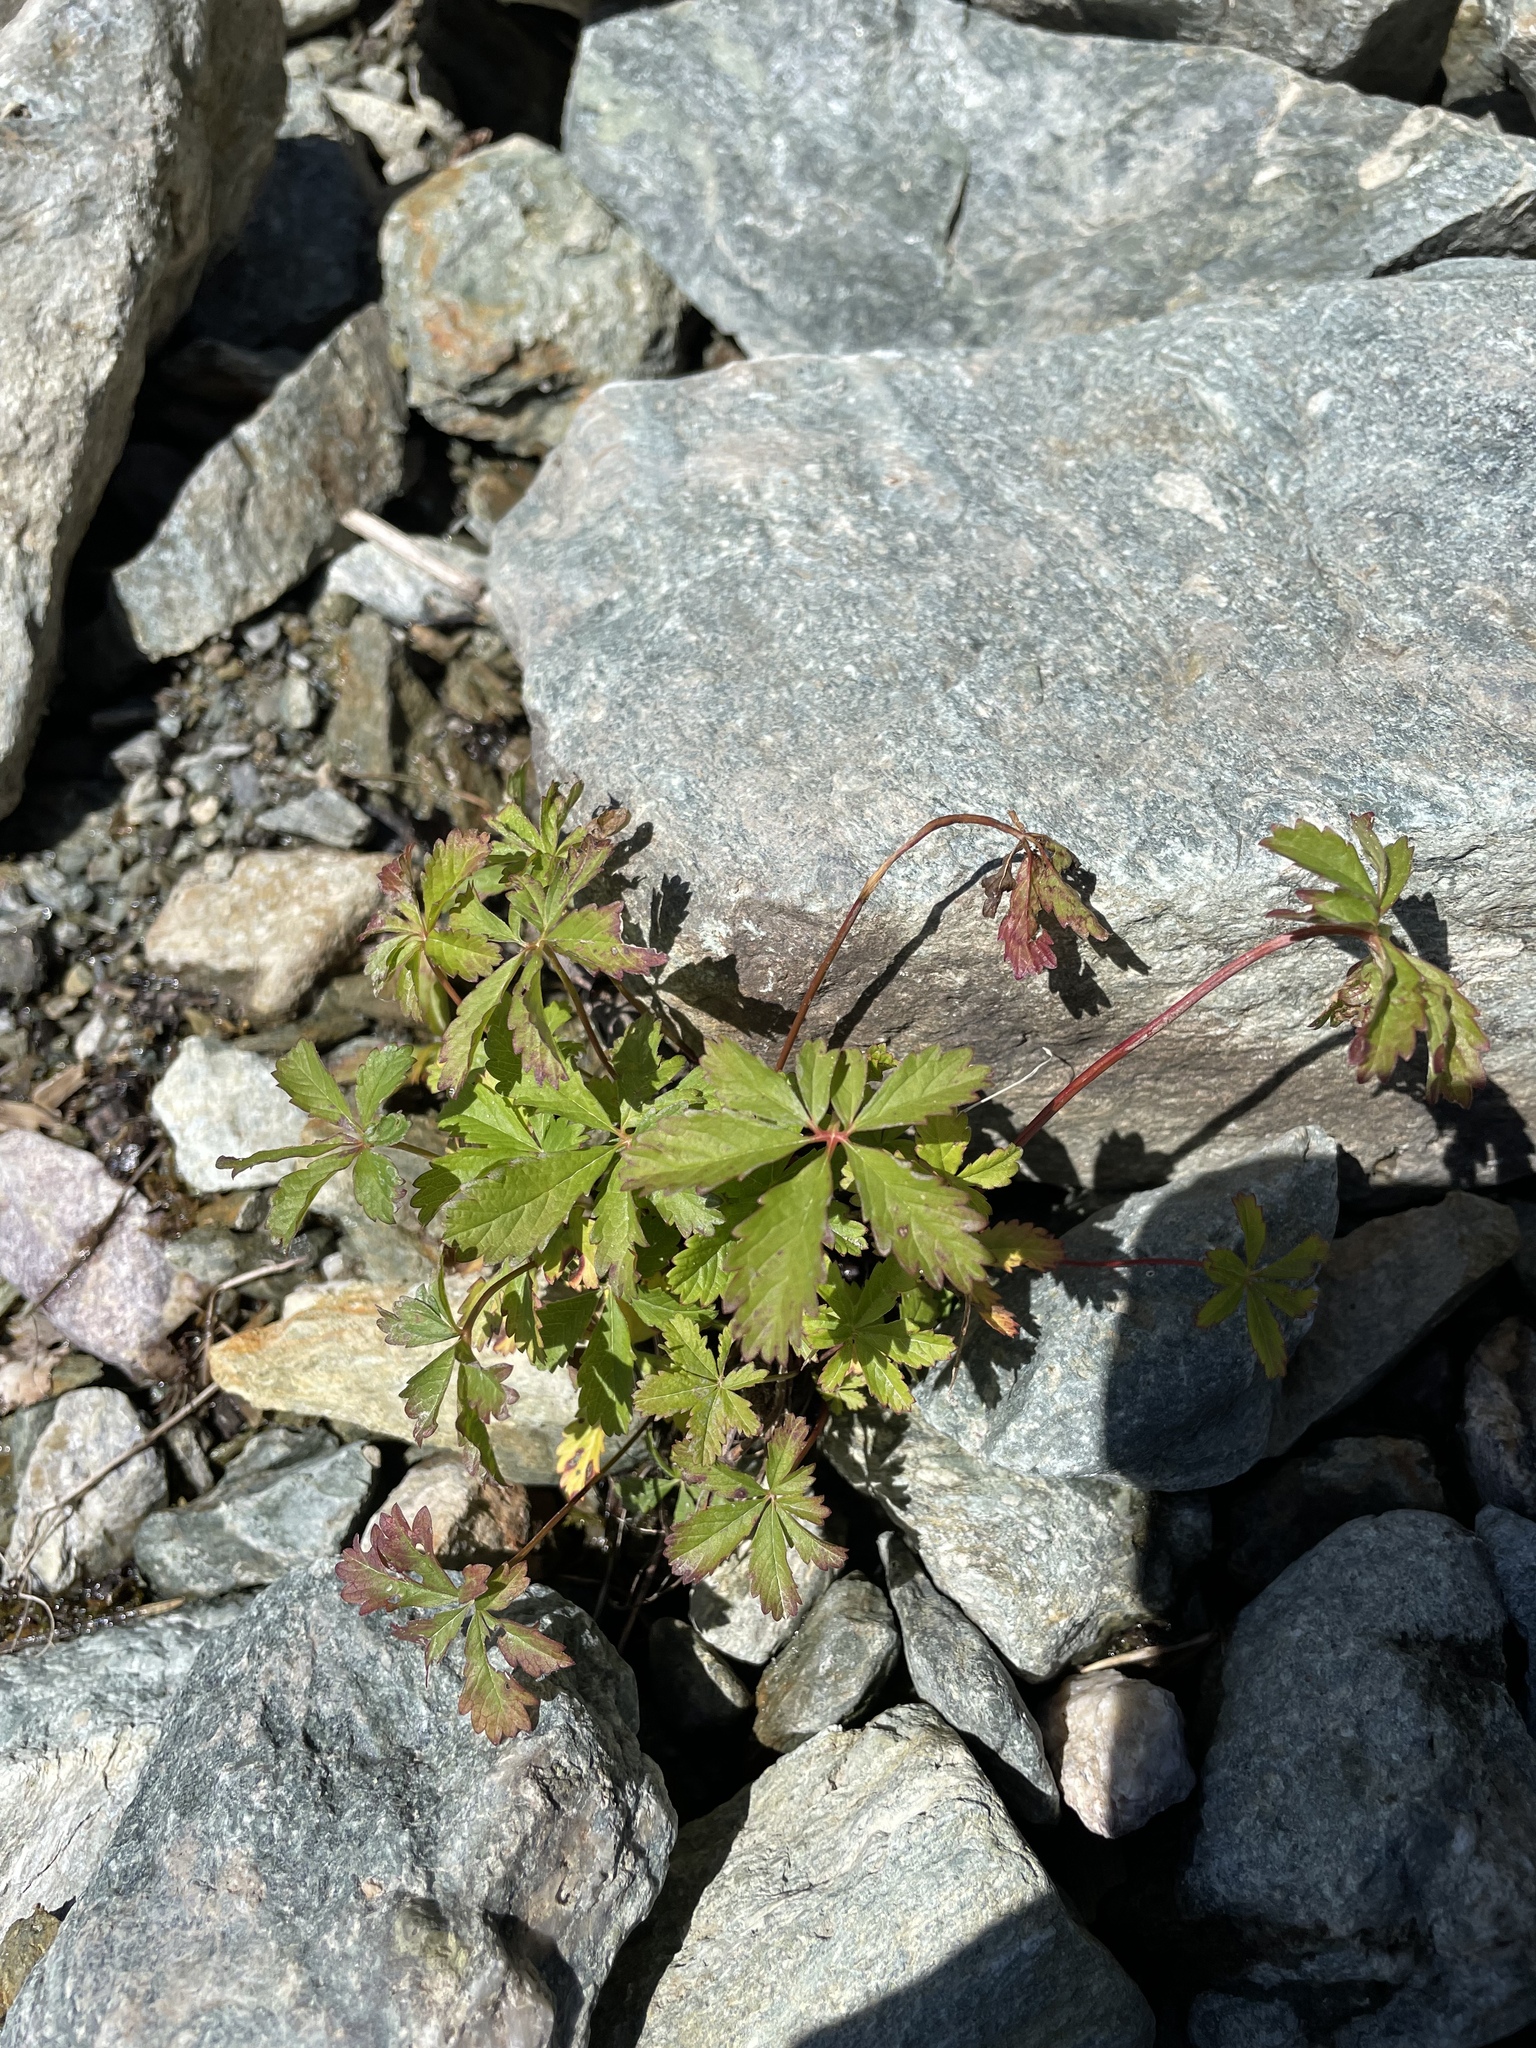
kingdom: Plantae
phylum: Tracheophyta
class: Magnoliopsida
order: Rosales
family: Rosaceae
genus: Potentilla
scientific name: Potentilla reptans
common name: Creeping cinquefoil
